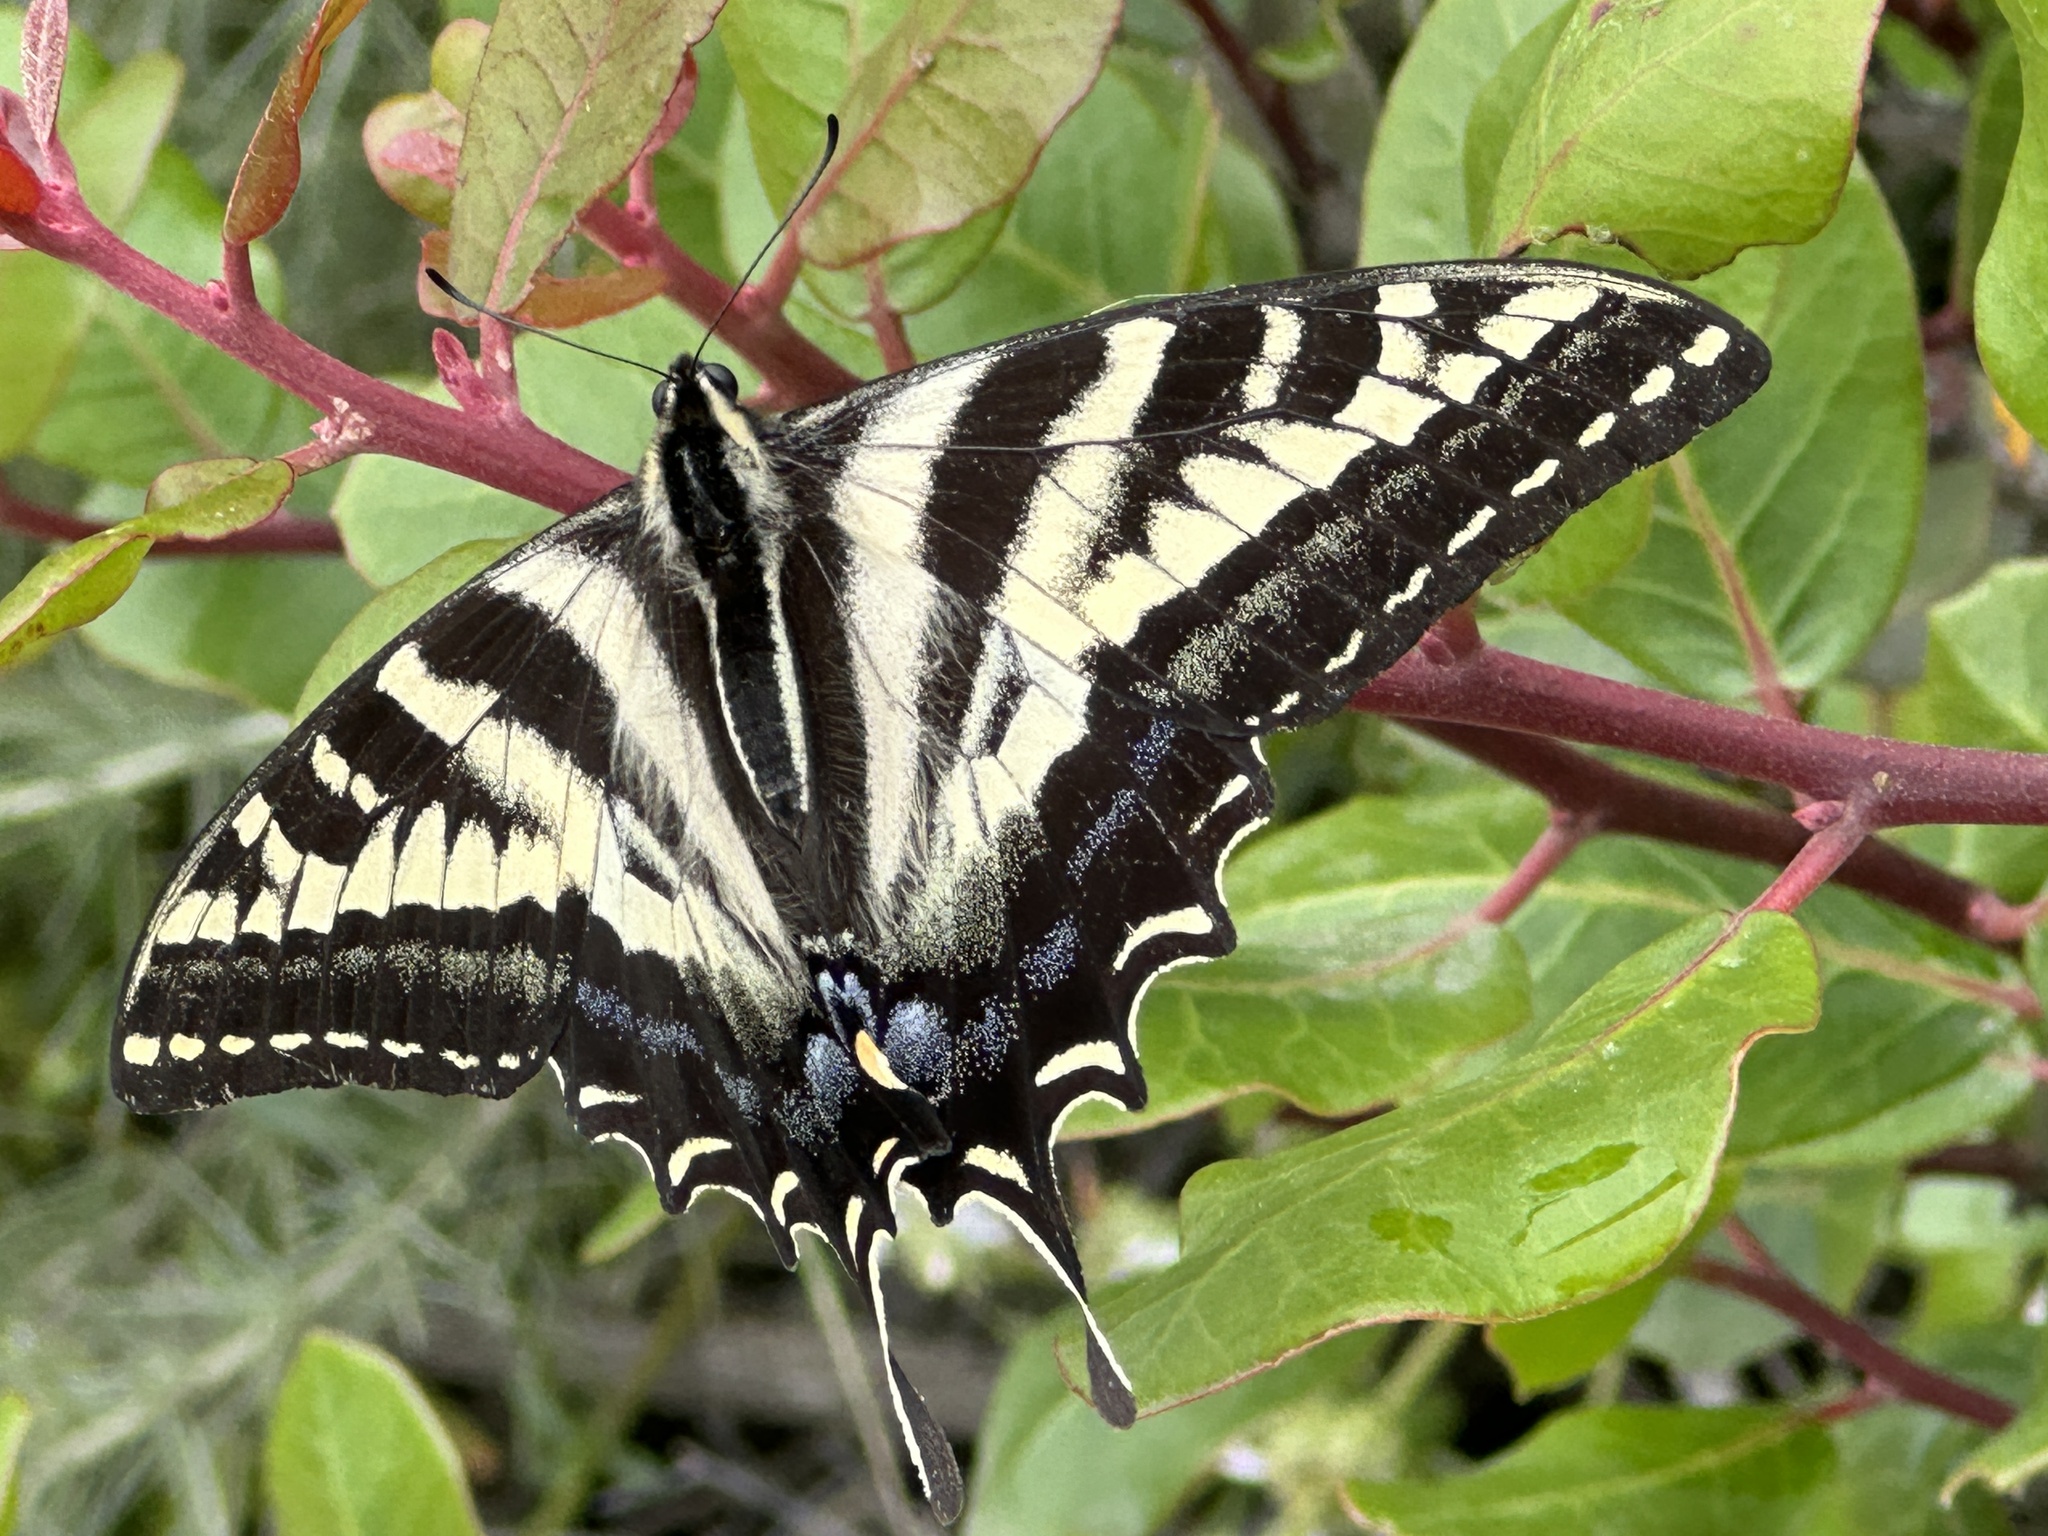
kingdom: Animalia
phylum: Arthropoda
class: Insecta
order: Lepidoptera
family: Papilionidae
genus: Papilio
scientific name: Papilio eurymedon
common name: Pale tiger swallowtail
